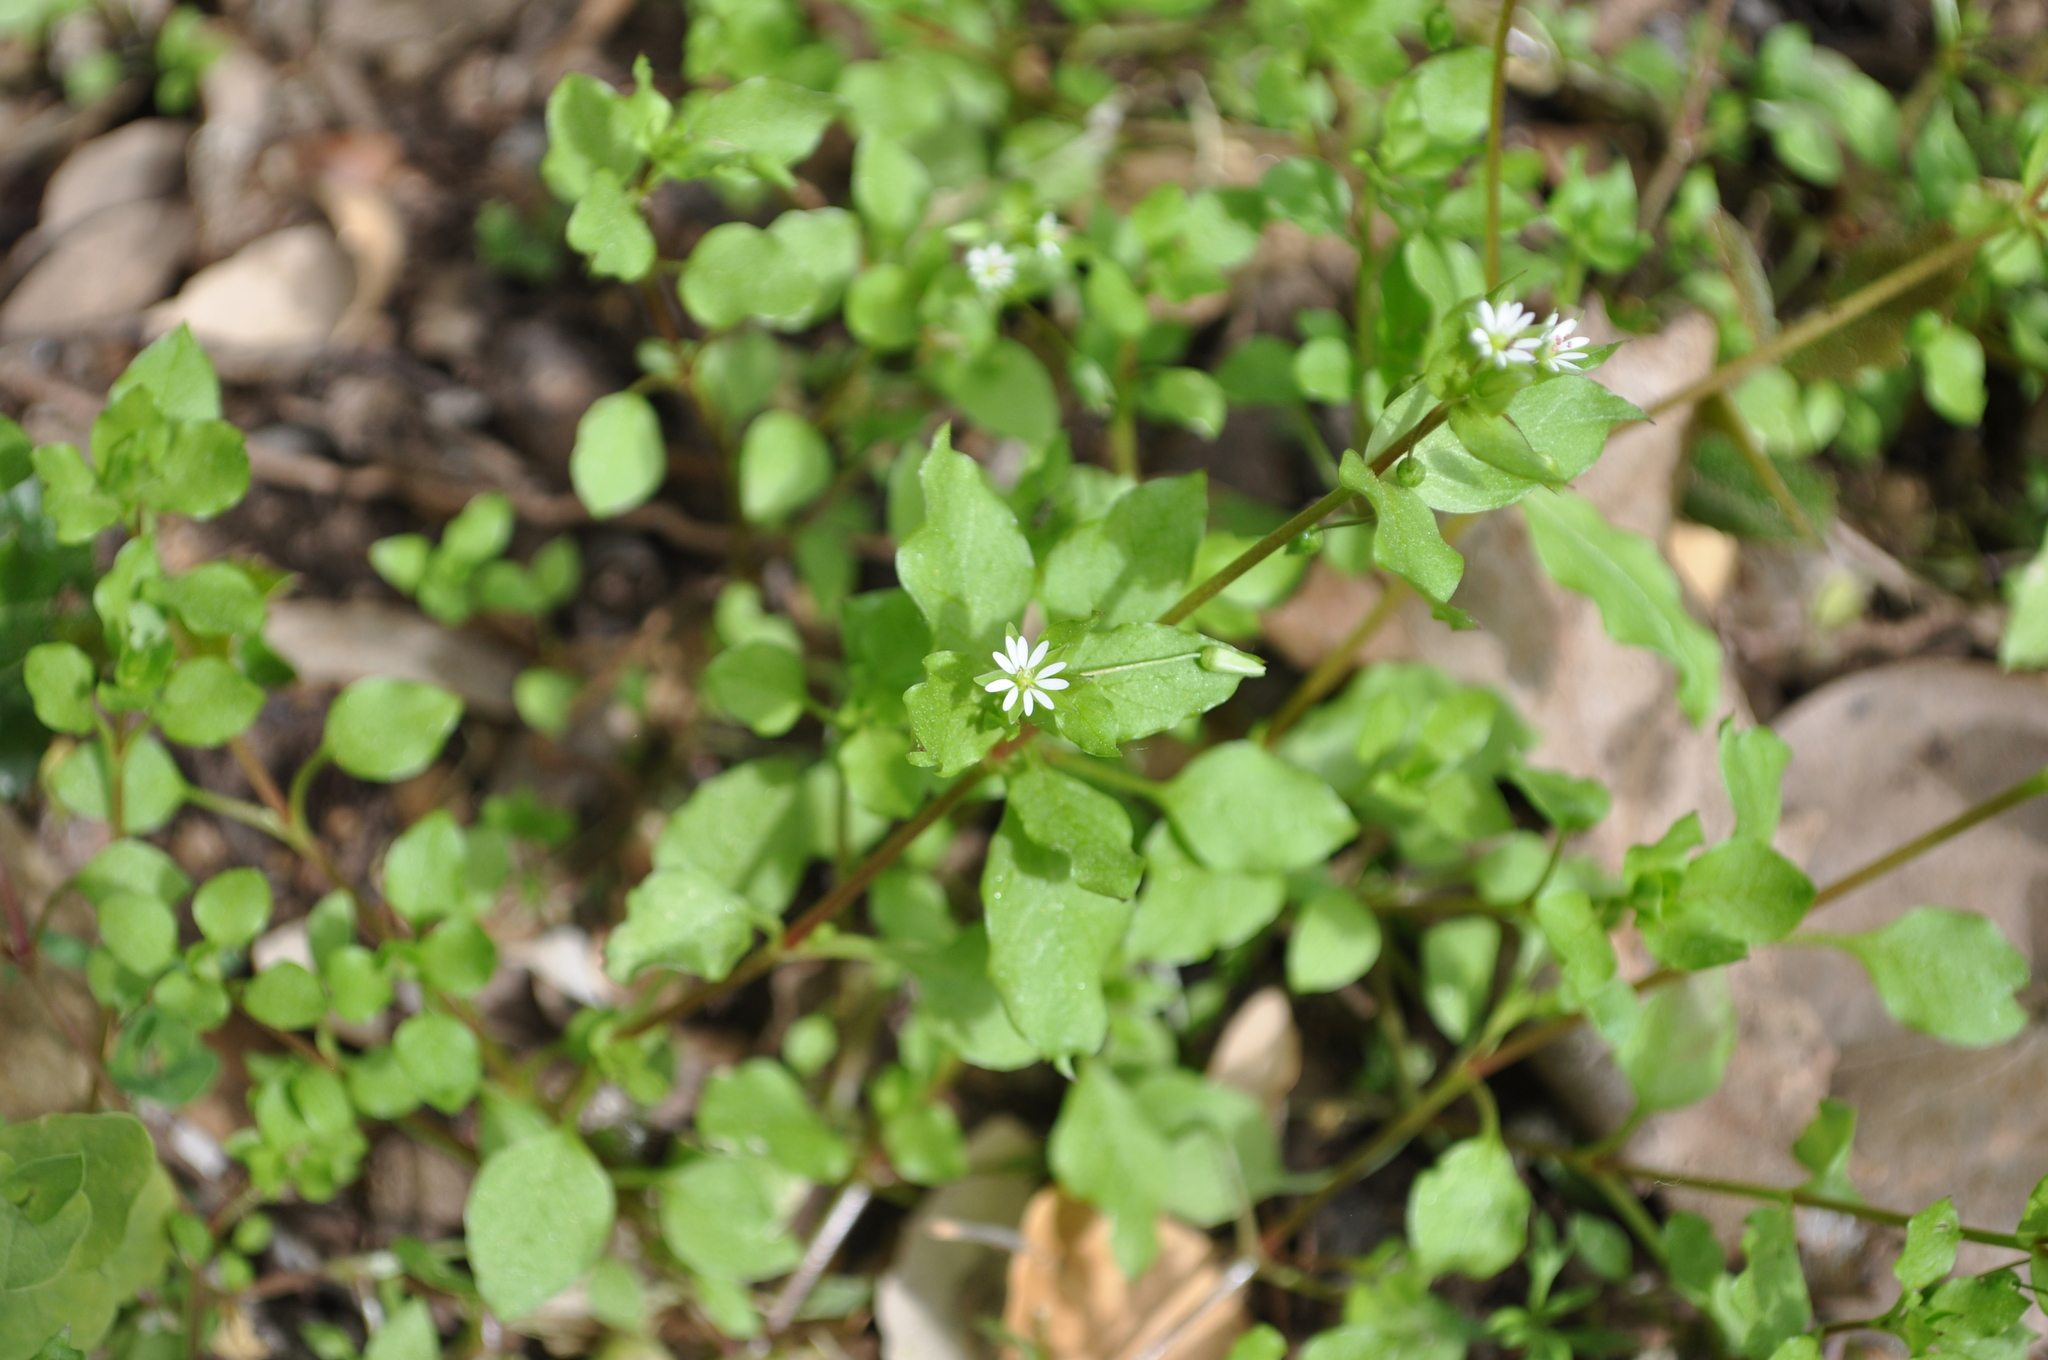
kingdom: Plantae
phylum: Tracheophyta
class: Magnoliopsida
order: Caryophyllales
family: Caryophyllaceae
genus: Stellaria
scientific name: Stellaria media
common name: Common chickweed
